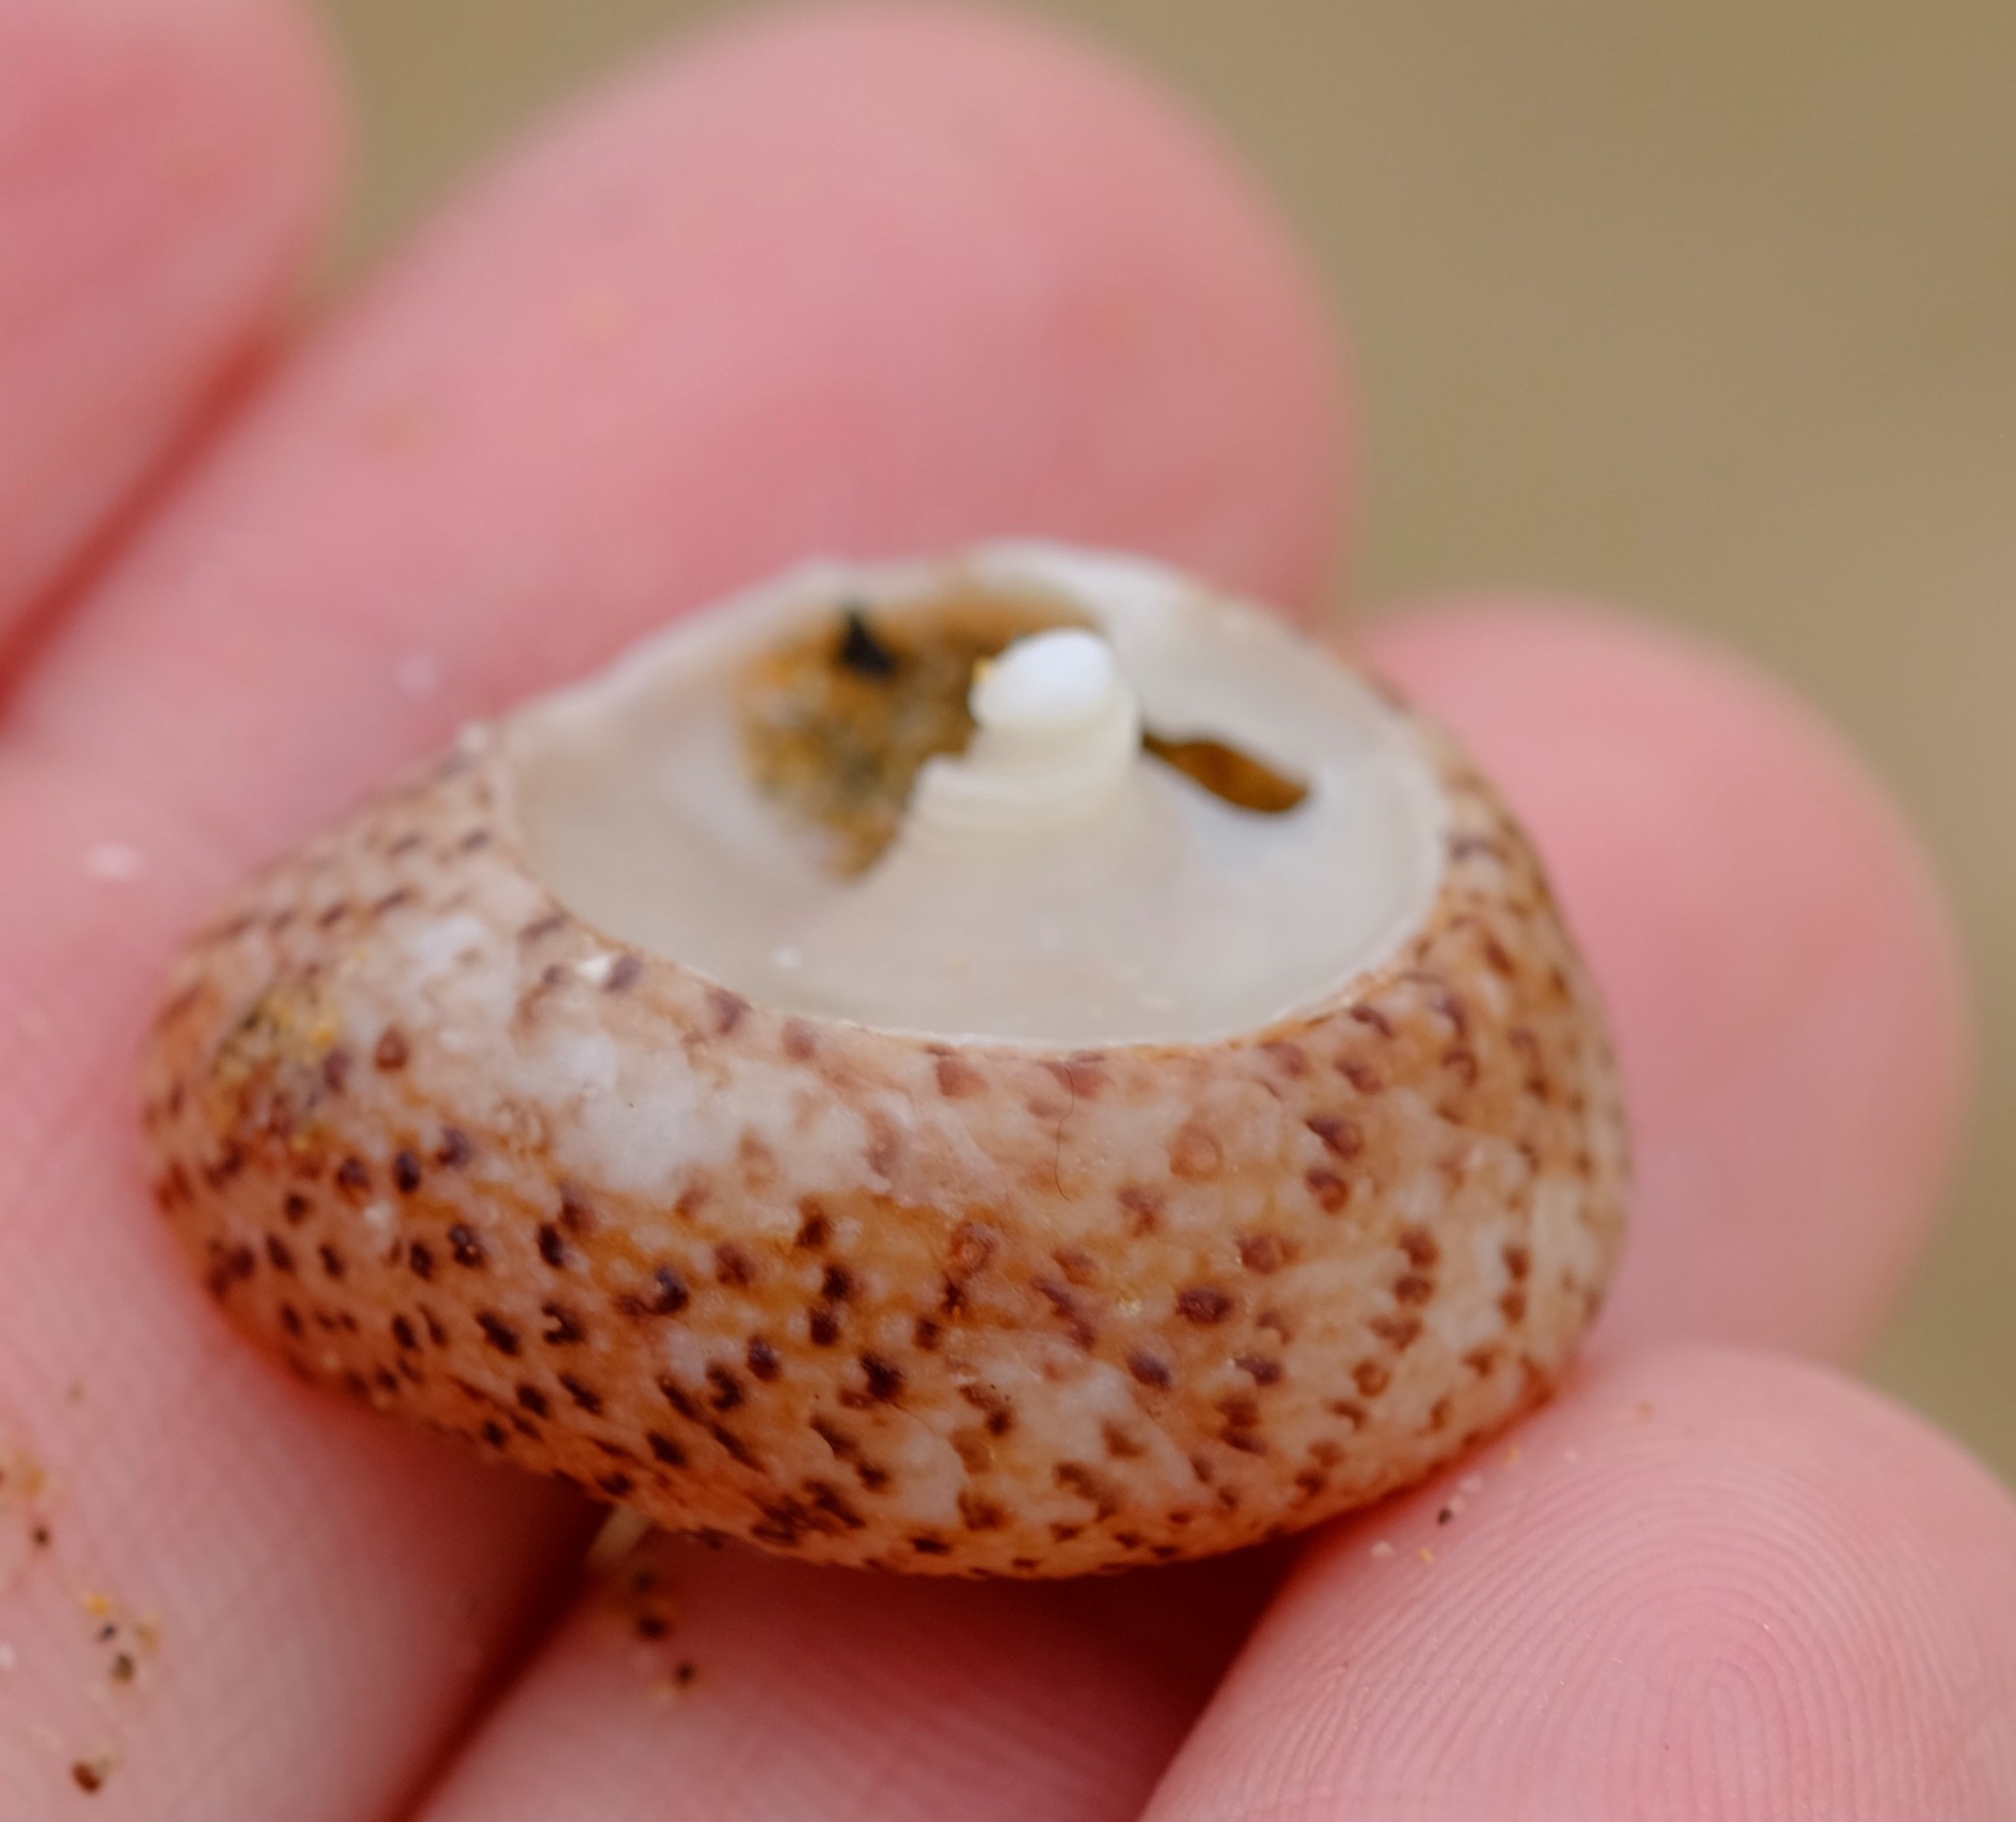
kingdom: Animalia
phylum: Mollusca
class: Gastropoda
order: Trochida
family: Trochidae
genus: Clanculus
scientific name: Clanculus undatus
